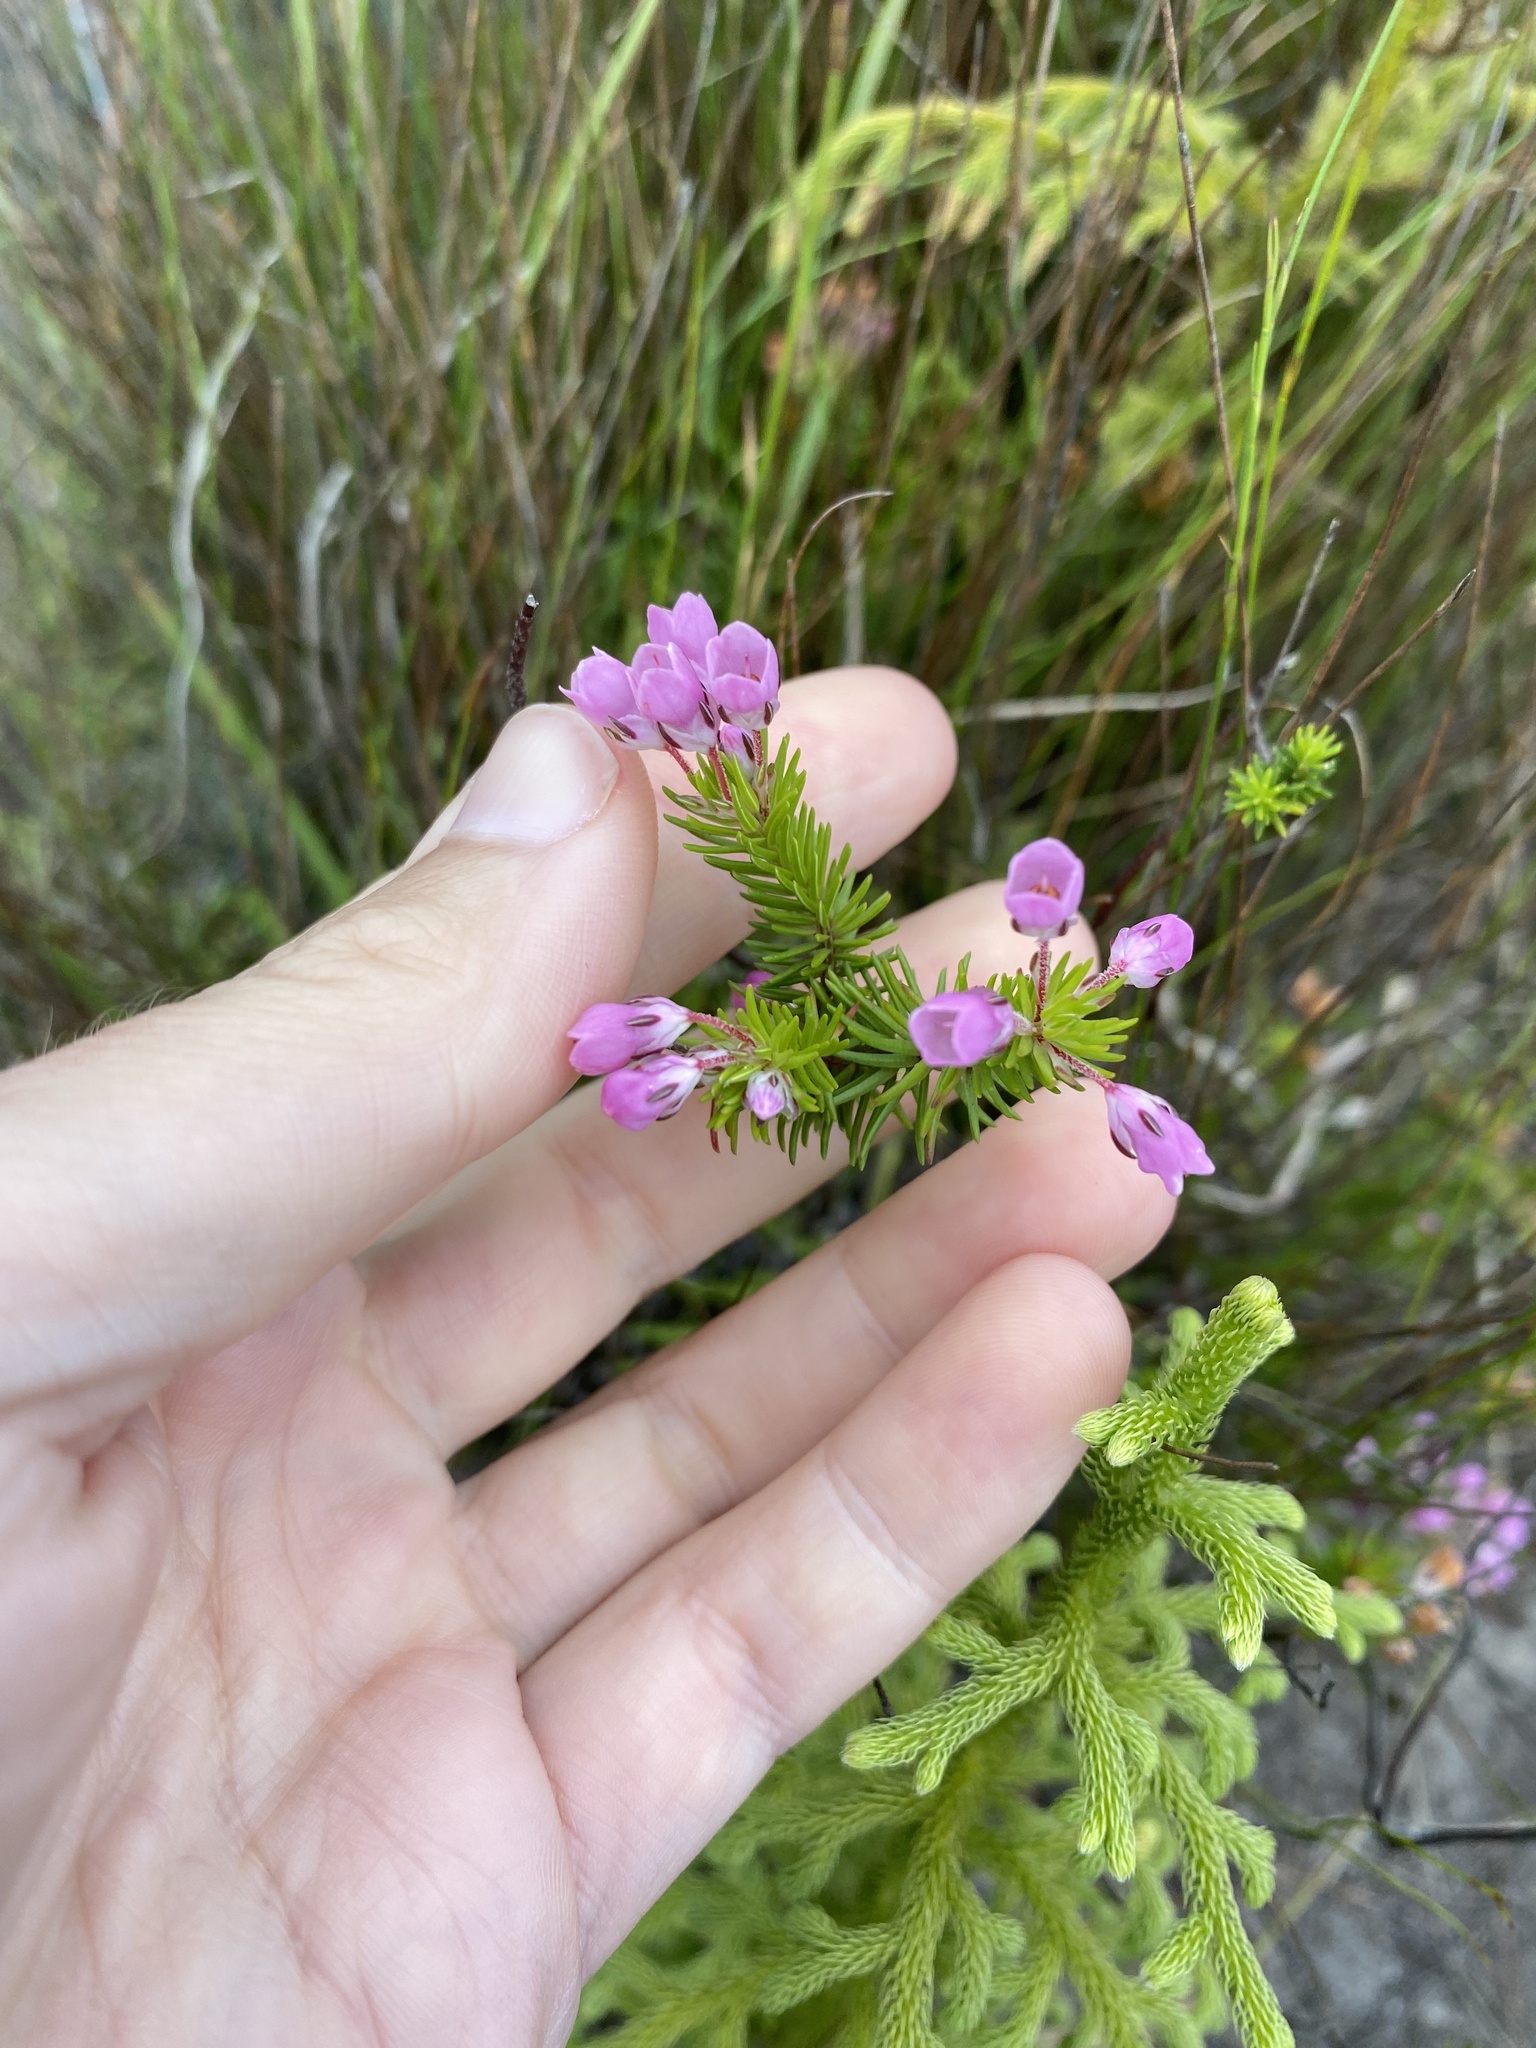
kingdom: Plantae
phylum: Tracheophyta
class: Magnoliopsida
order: Ericales
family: Ericaceae
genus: Erica
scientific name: Erica cubica
